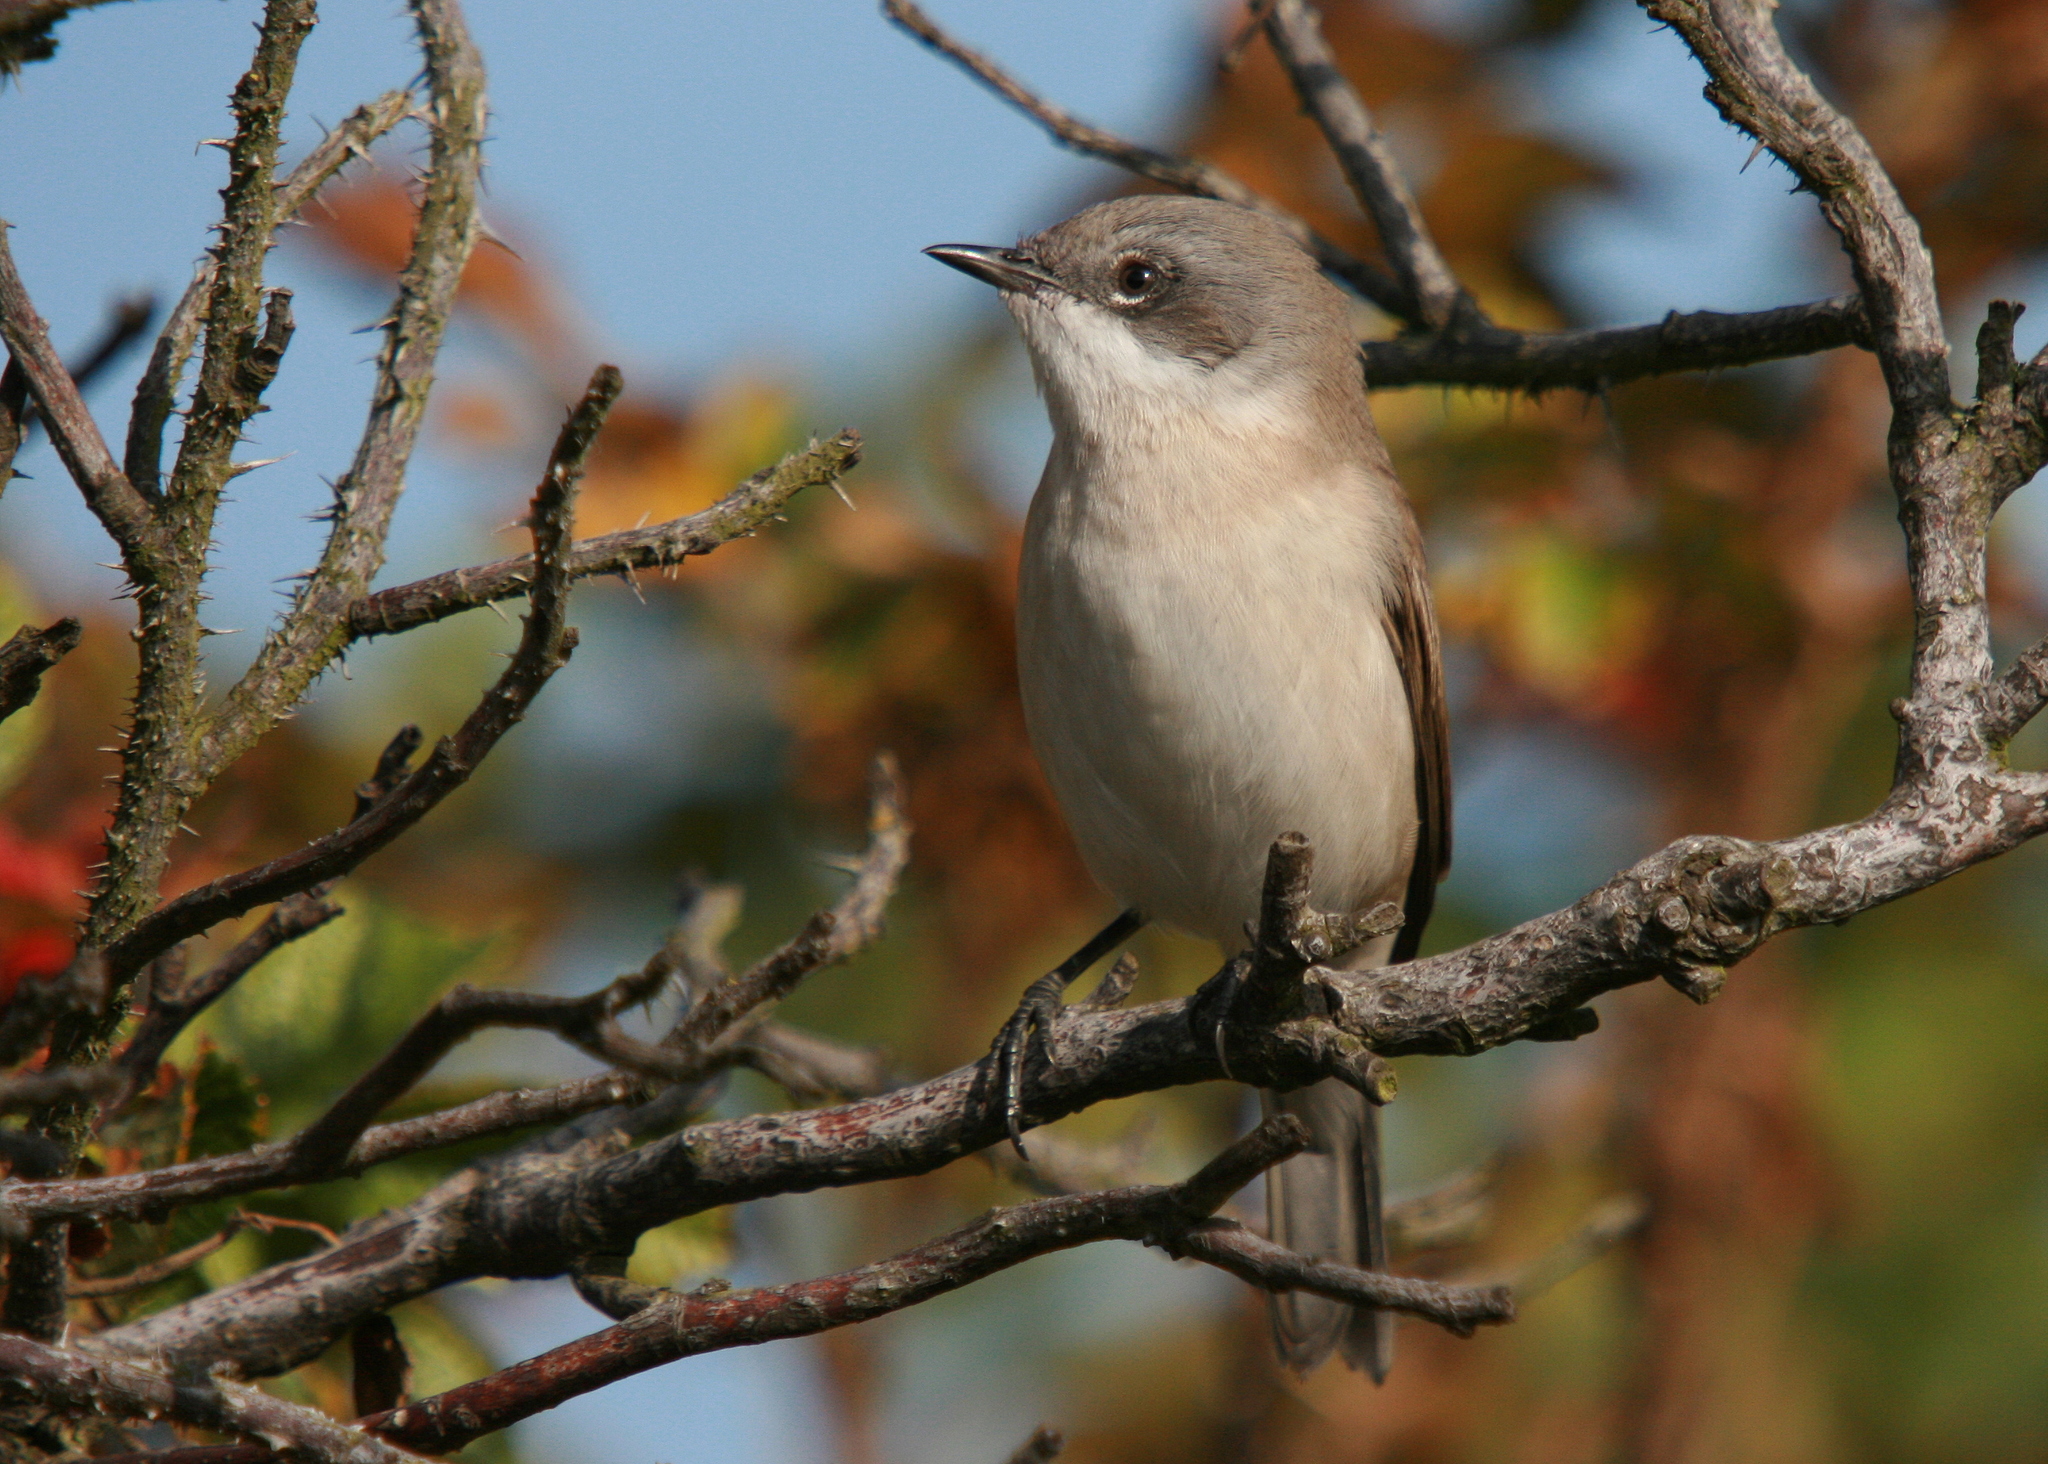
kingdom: Animalia
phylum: Chordata
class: Aves
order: Passeriformes
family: Sylviidae
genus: Sylvia
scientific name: Sylvia curruca
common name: Lesser whitethroat
